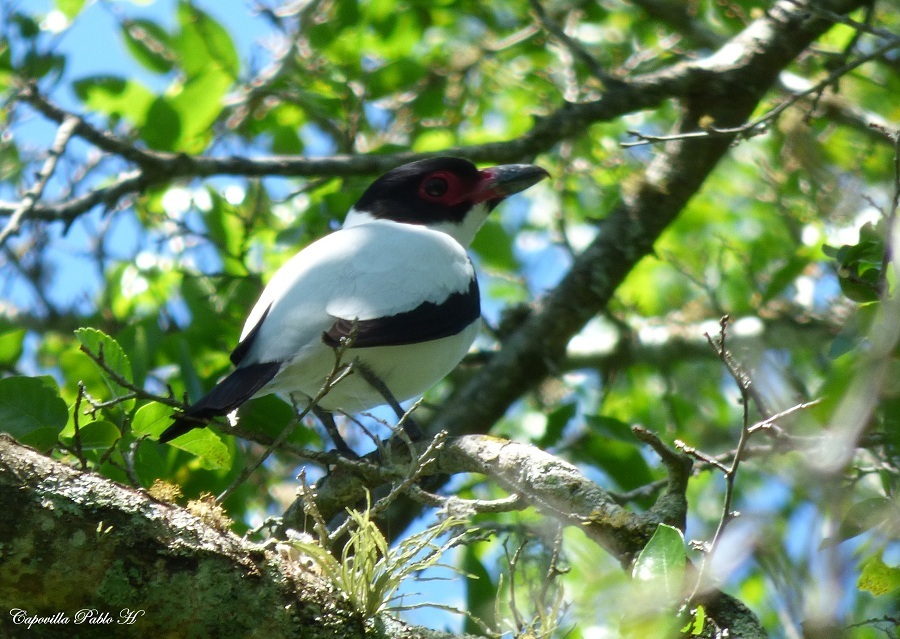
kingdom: Animalia
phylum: Chordata
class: Aves
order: Passeriformes
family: Cotingidae
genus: Tityra
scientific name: Tityra cayana
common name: Black-tailed tityra
